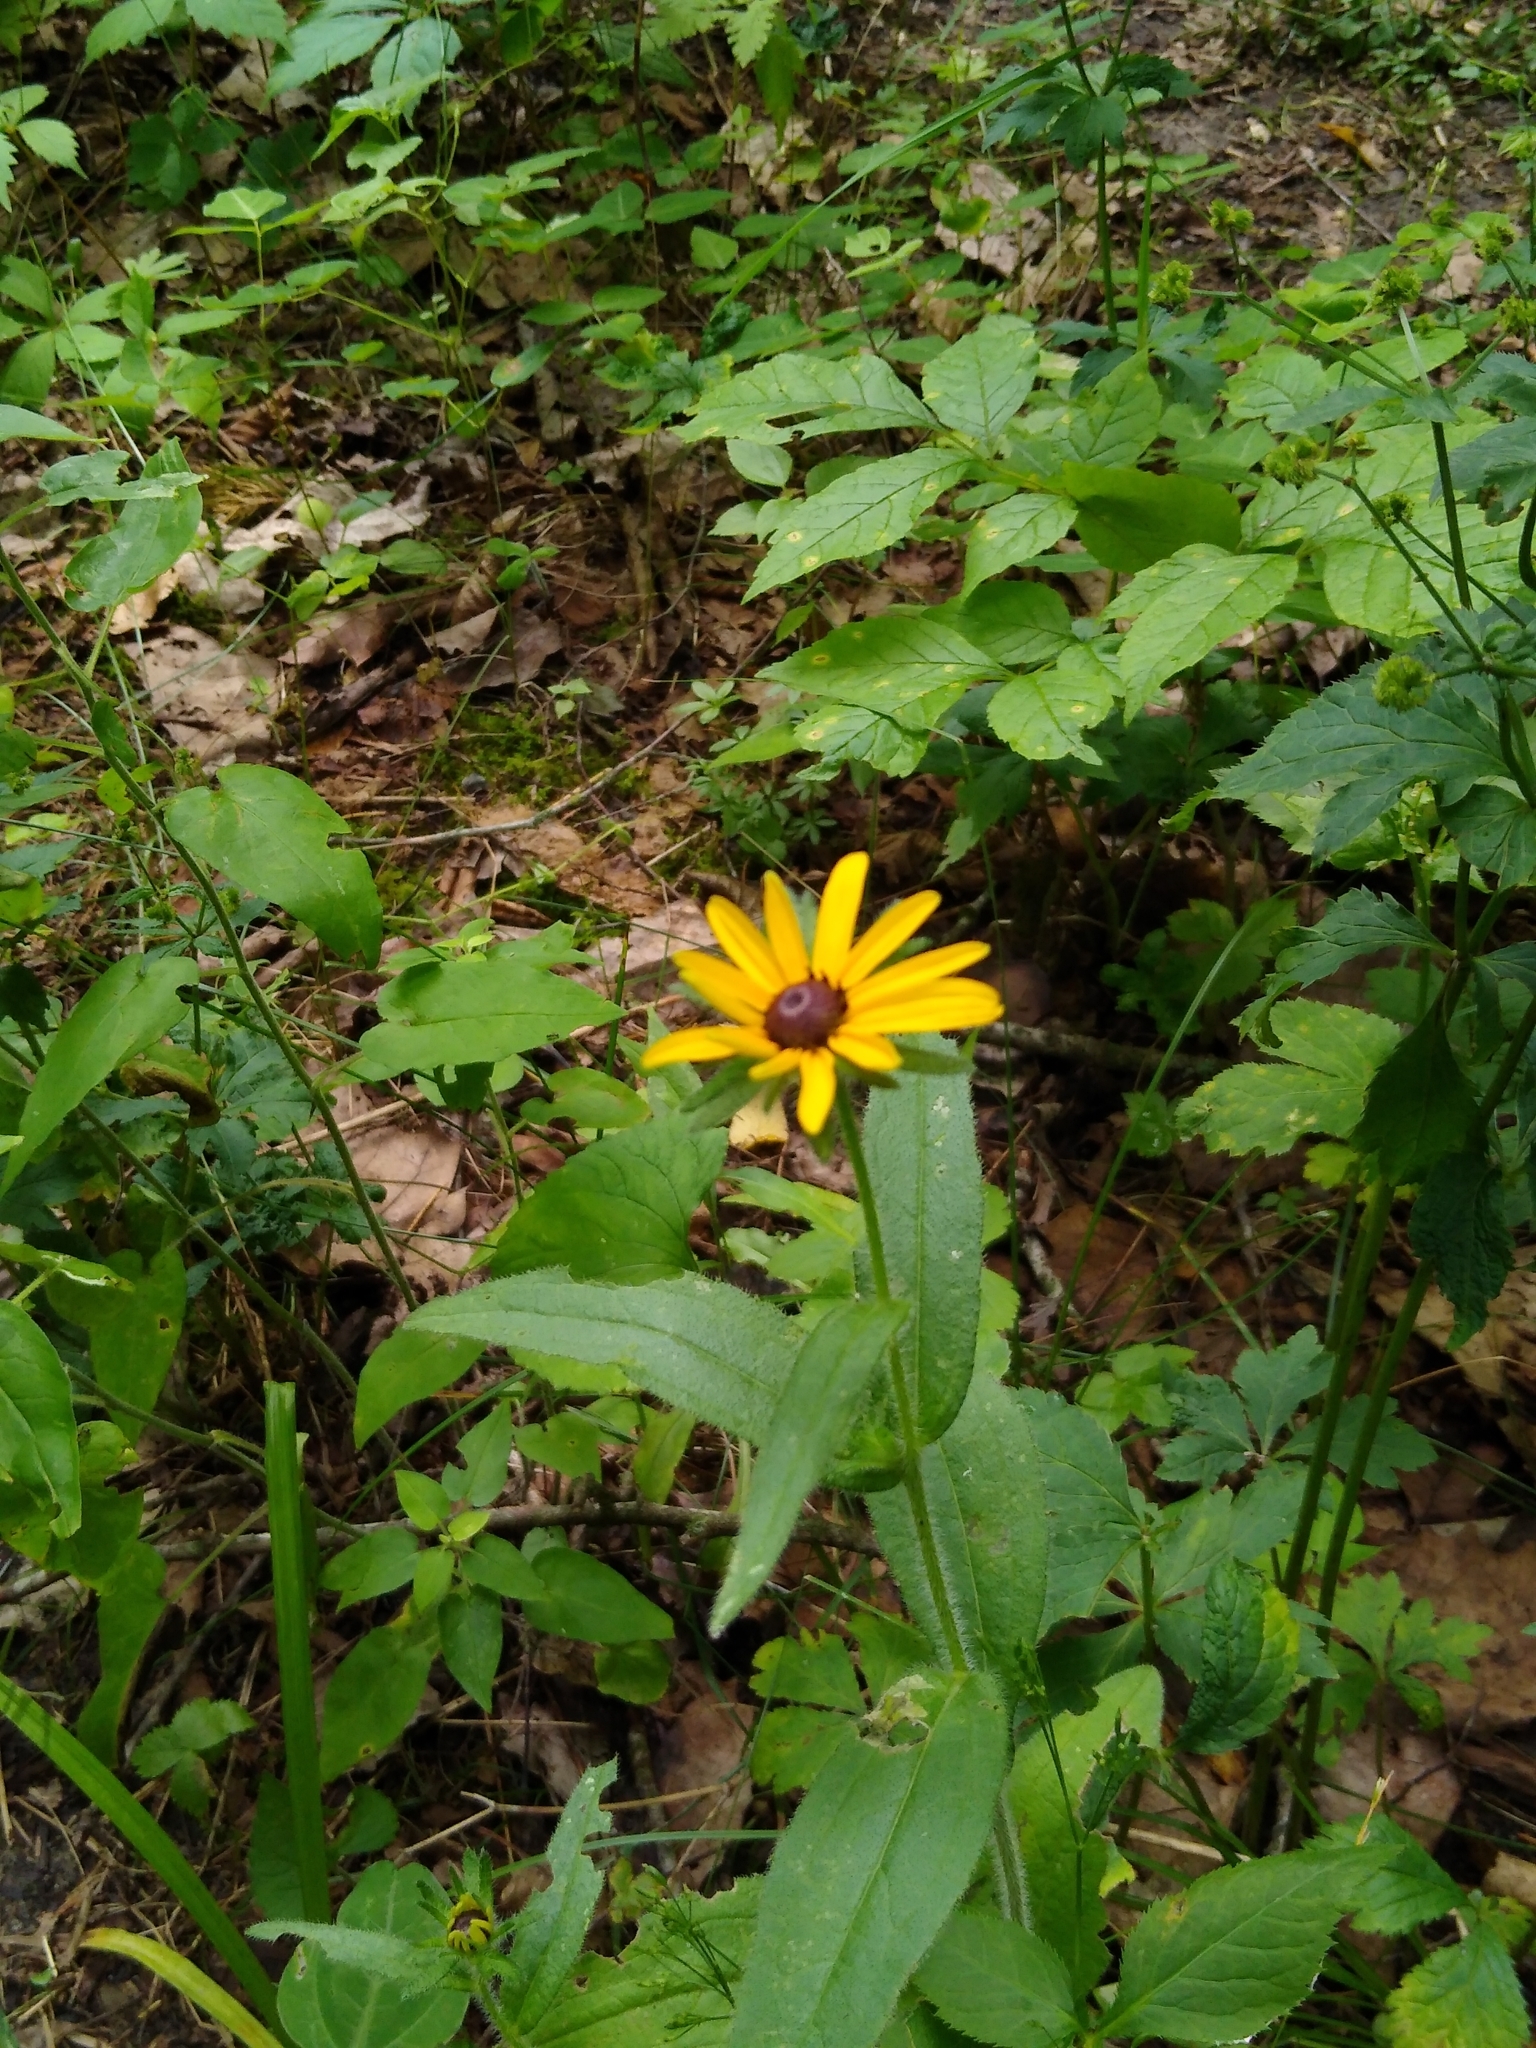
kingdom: Plantae
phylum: Tracheophyta
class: Magnoliopsida
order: Asterales
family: Asteraceae
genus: Rudbeckia
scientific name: Rudbeckia hirta
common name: Black-eyed-susan
